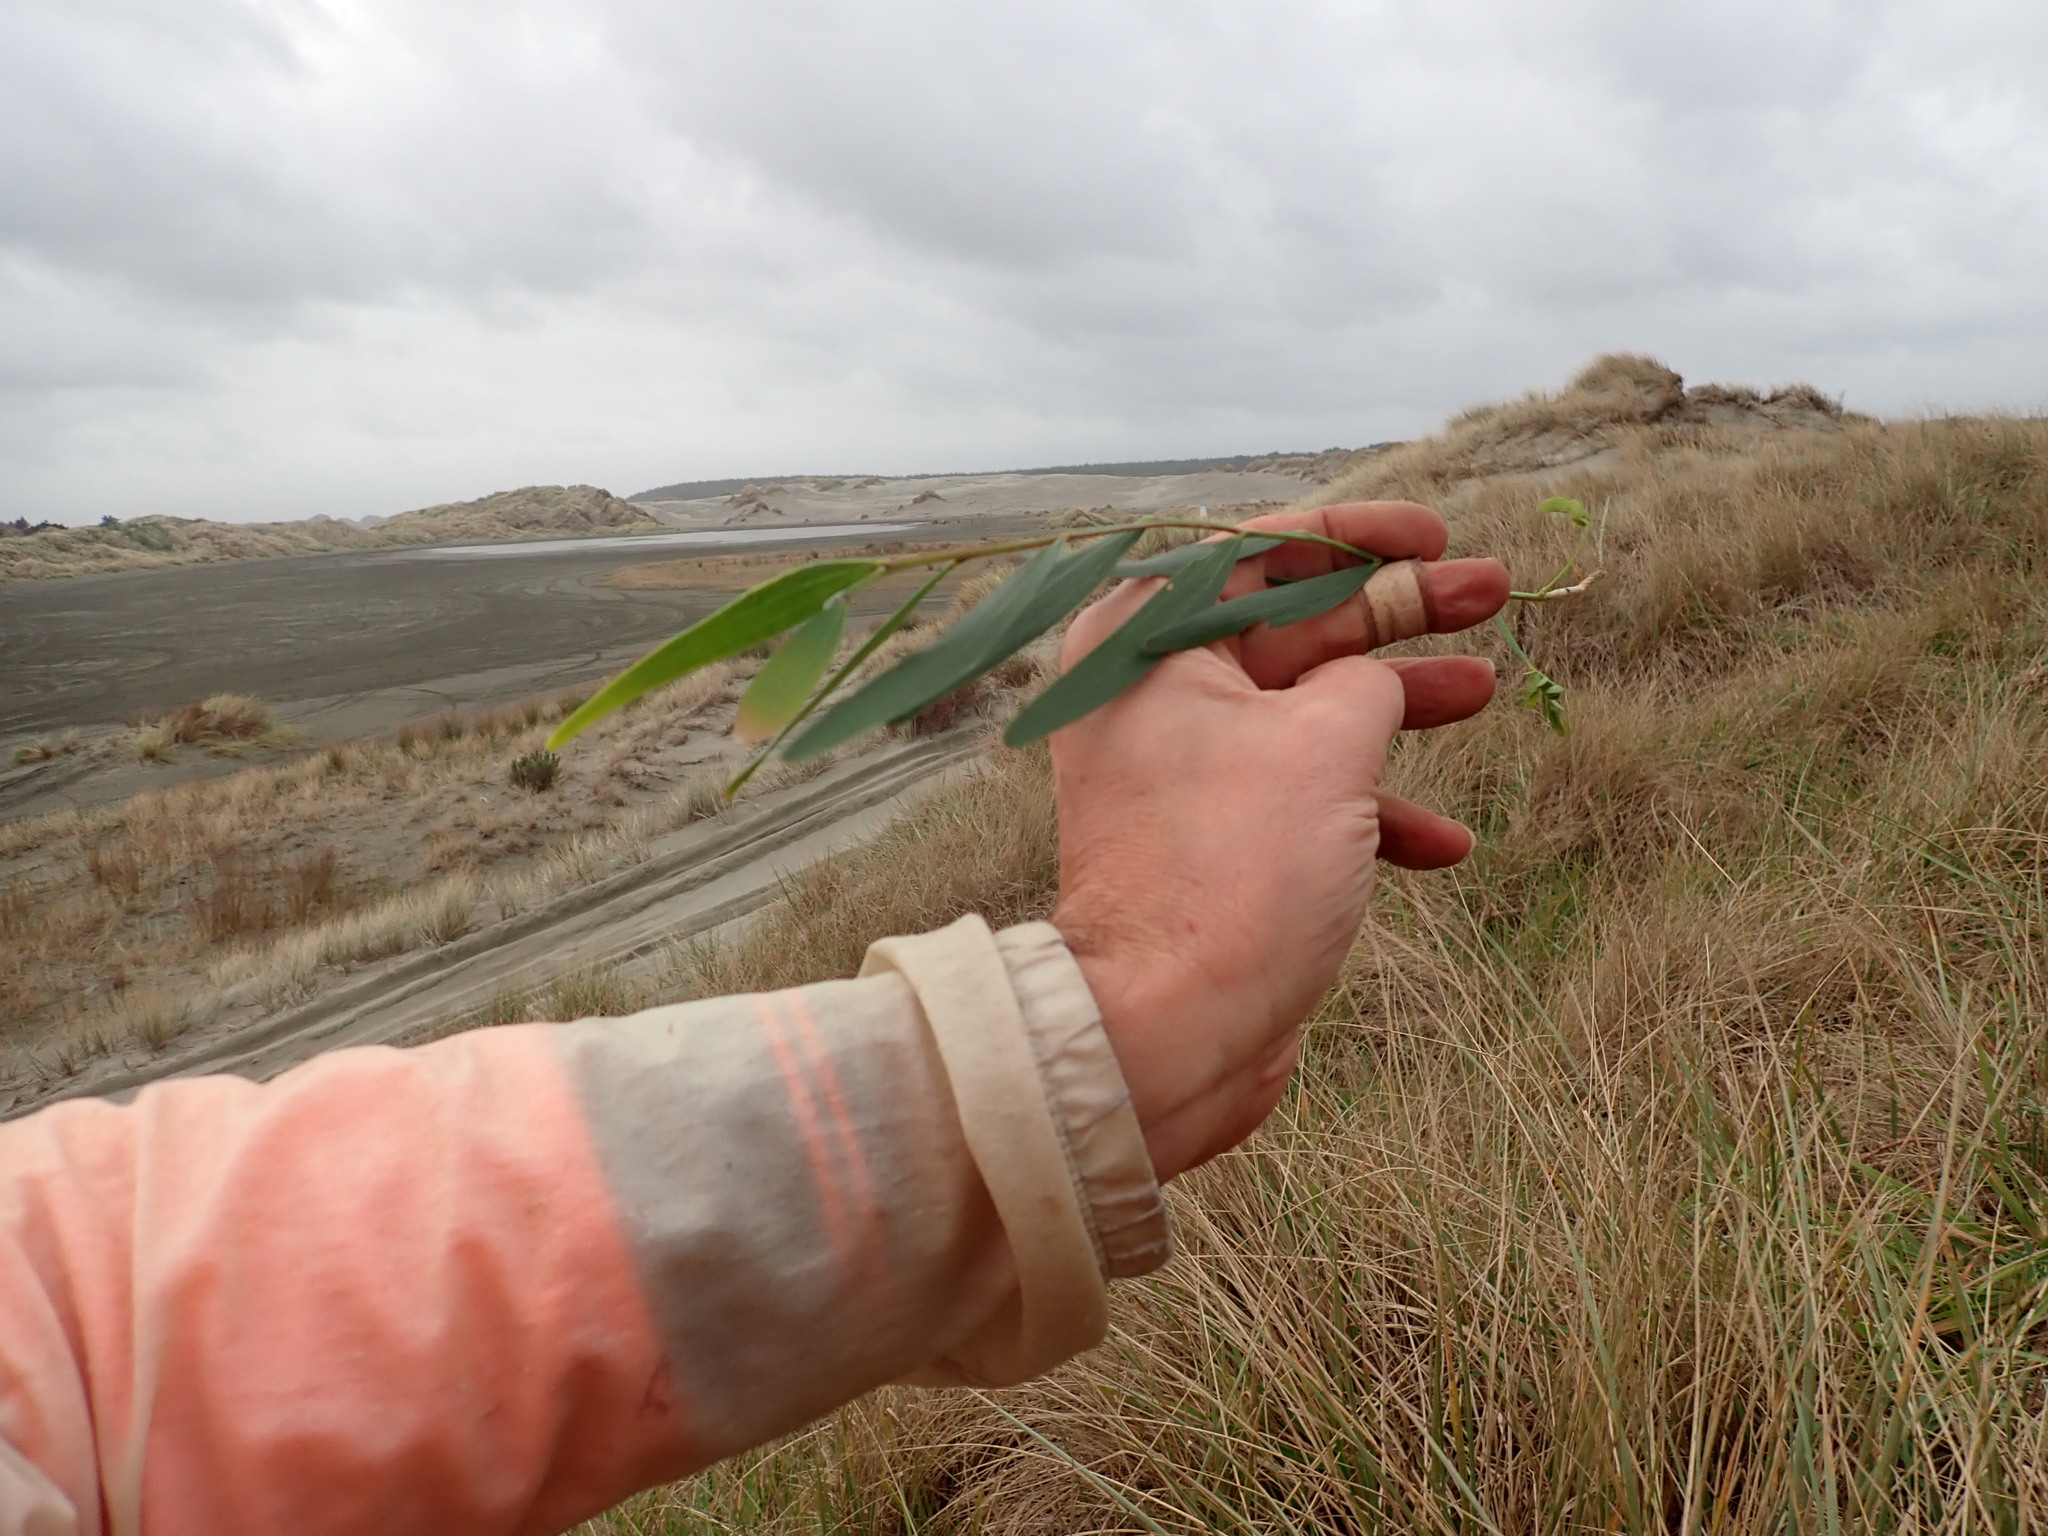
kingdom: Plantae
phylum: Tracheophyta
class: Magnoliopsida
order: Fabales
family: Fabaceae
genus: Acacia
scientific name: Acacia longifolia
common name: Sydney golden wattle
